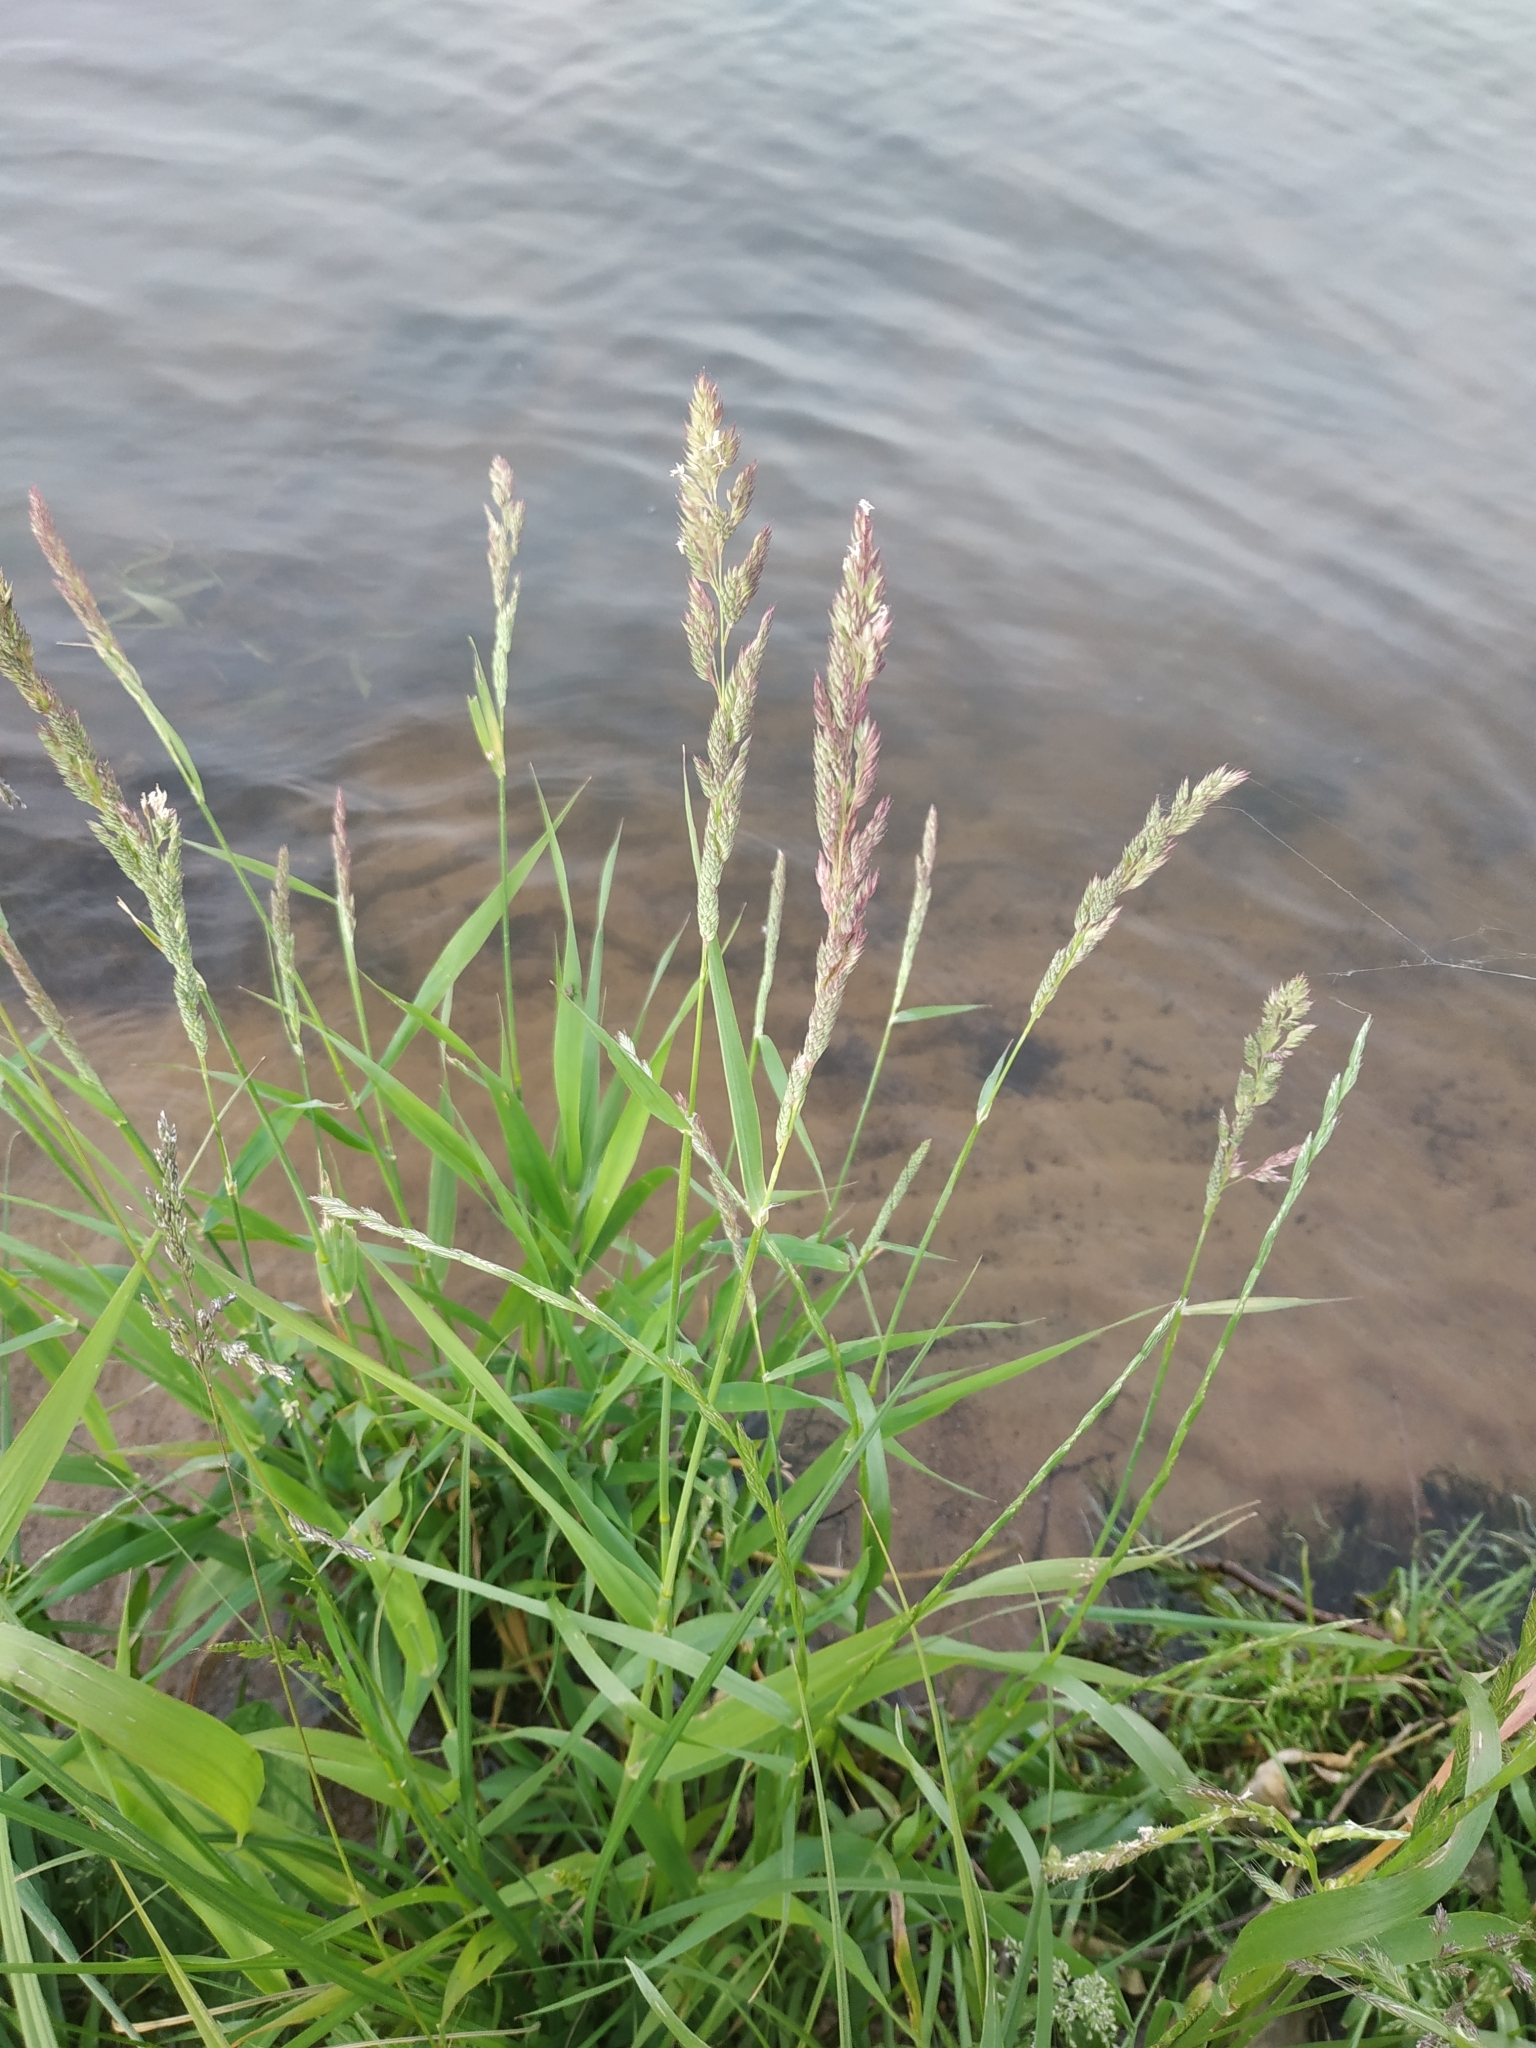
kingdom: Plantae
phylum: Tracheophyta
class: Liliopsida
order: Poales
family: Poaceae
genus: Phalaris
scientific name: Phalaris arundinacea
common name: Reed canary-grass
